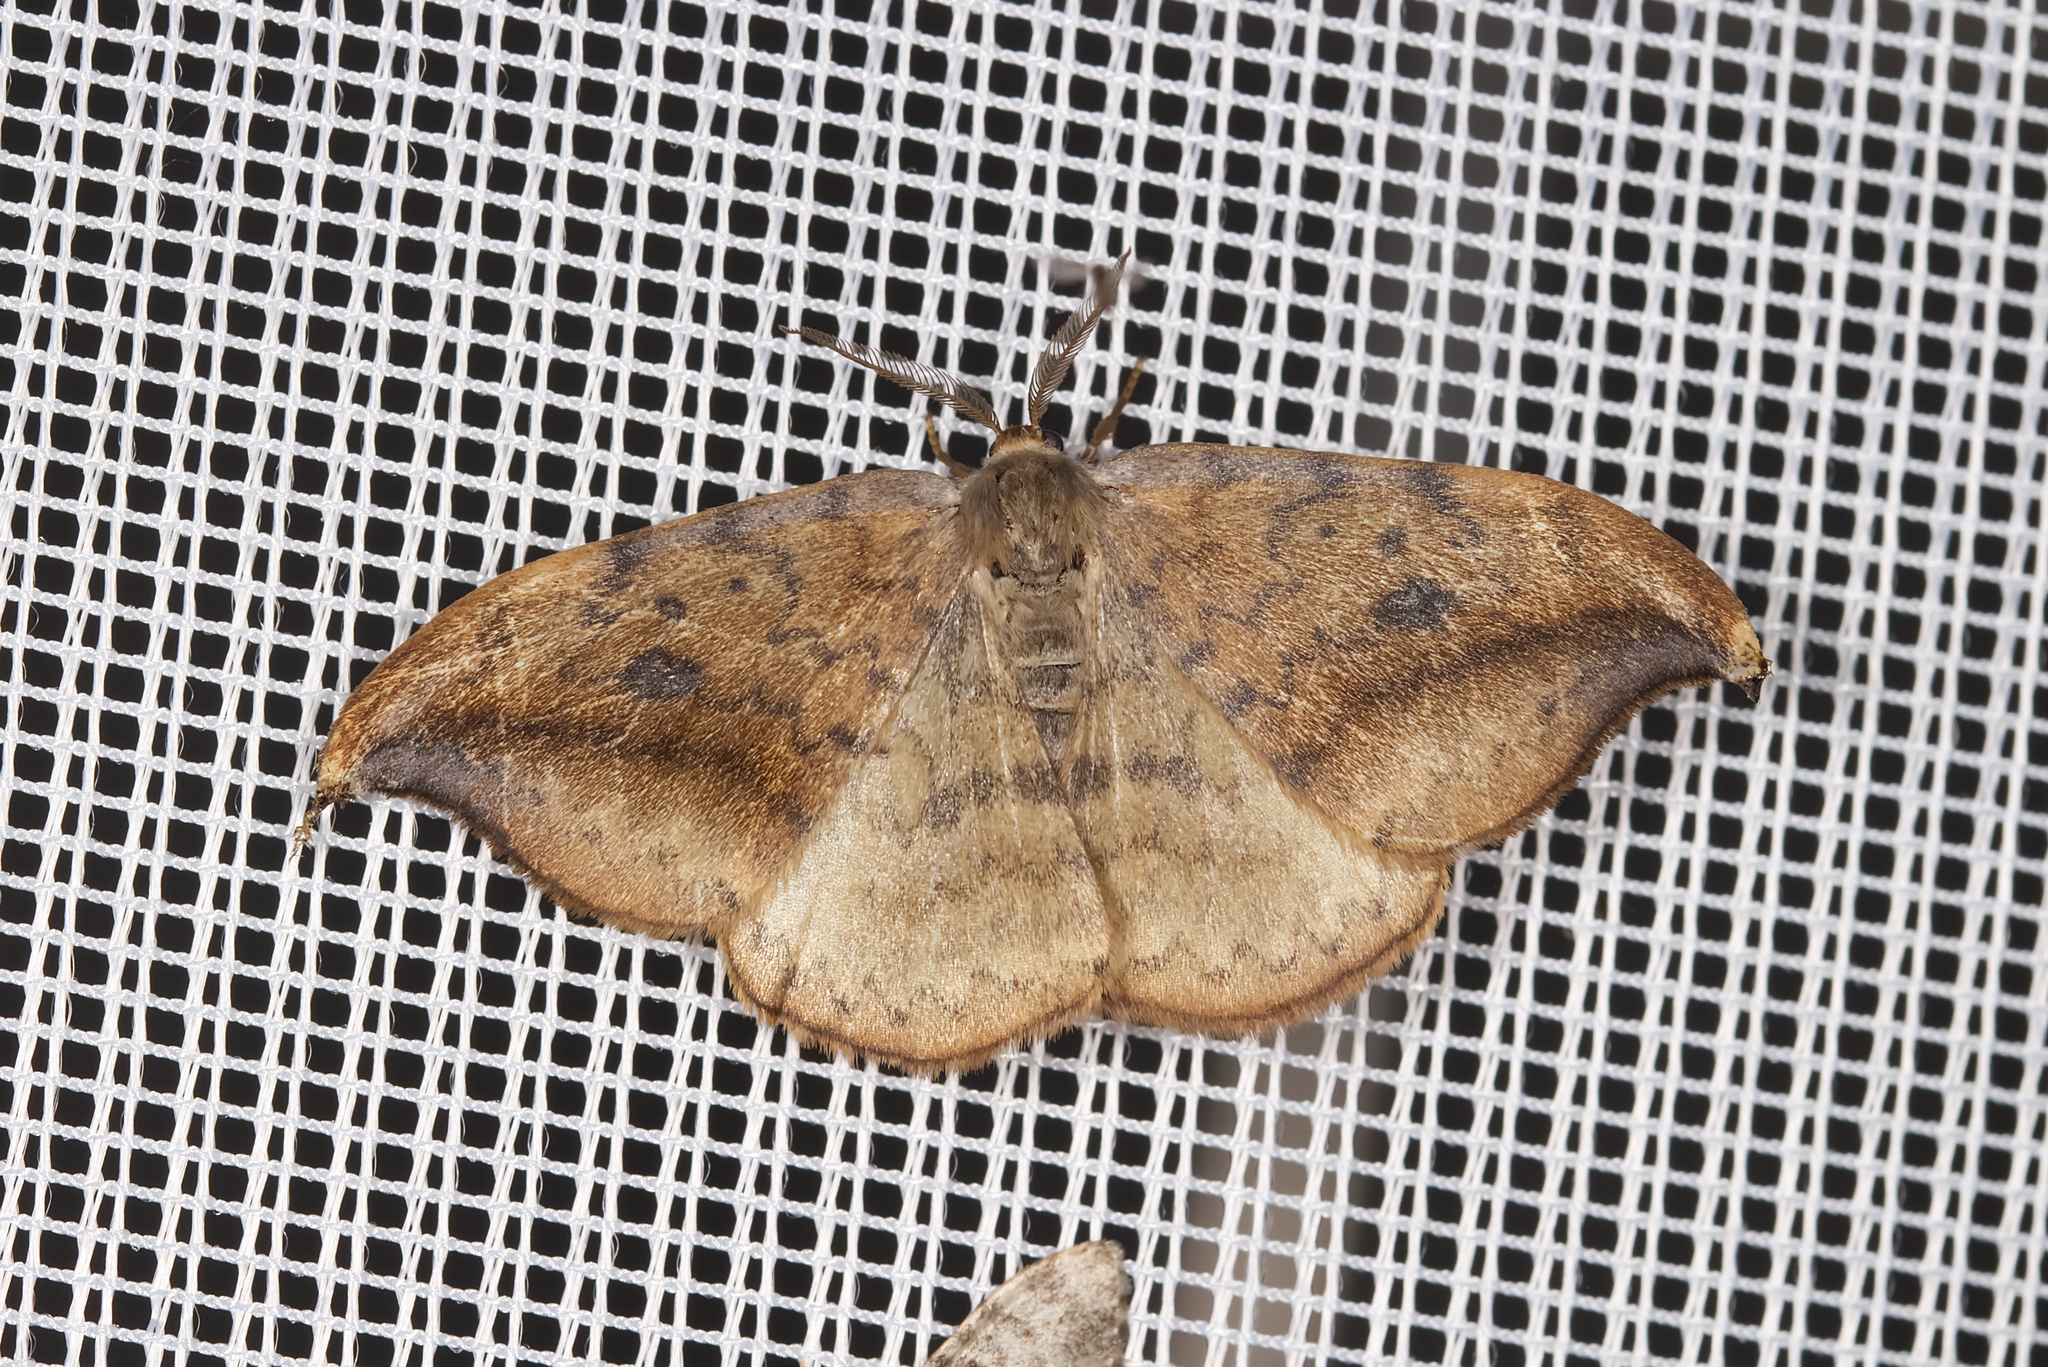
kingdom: Animalia
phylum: Arthropoda
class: Insecta
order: Lepidoptera
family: Drepanidae
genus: Drepana
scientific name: Drepana falcataria
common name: Pebble hook-tip
